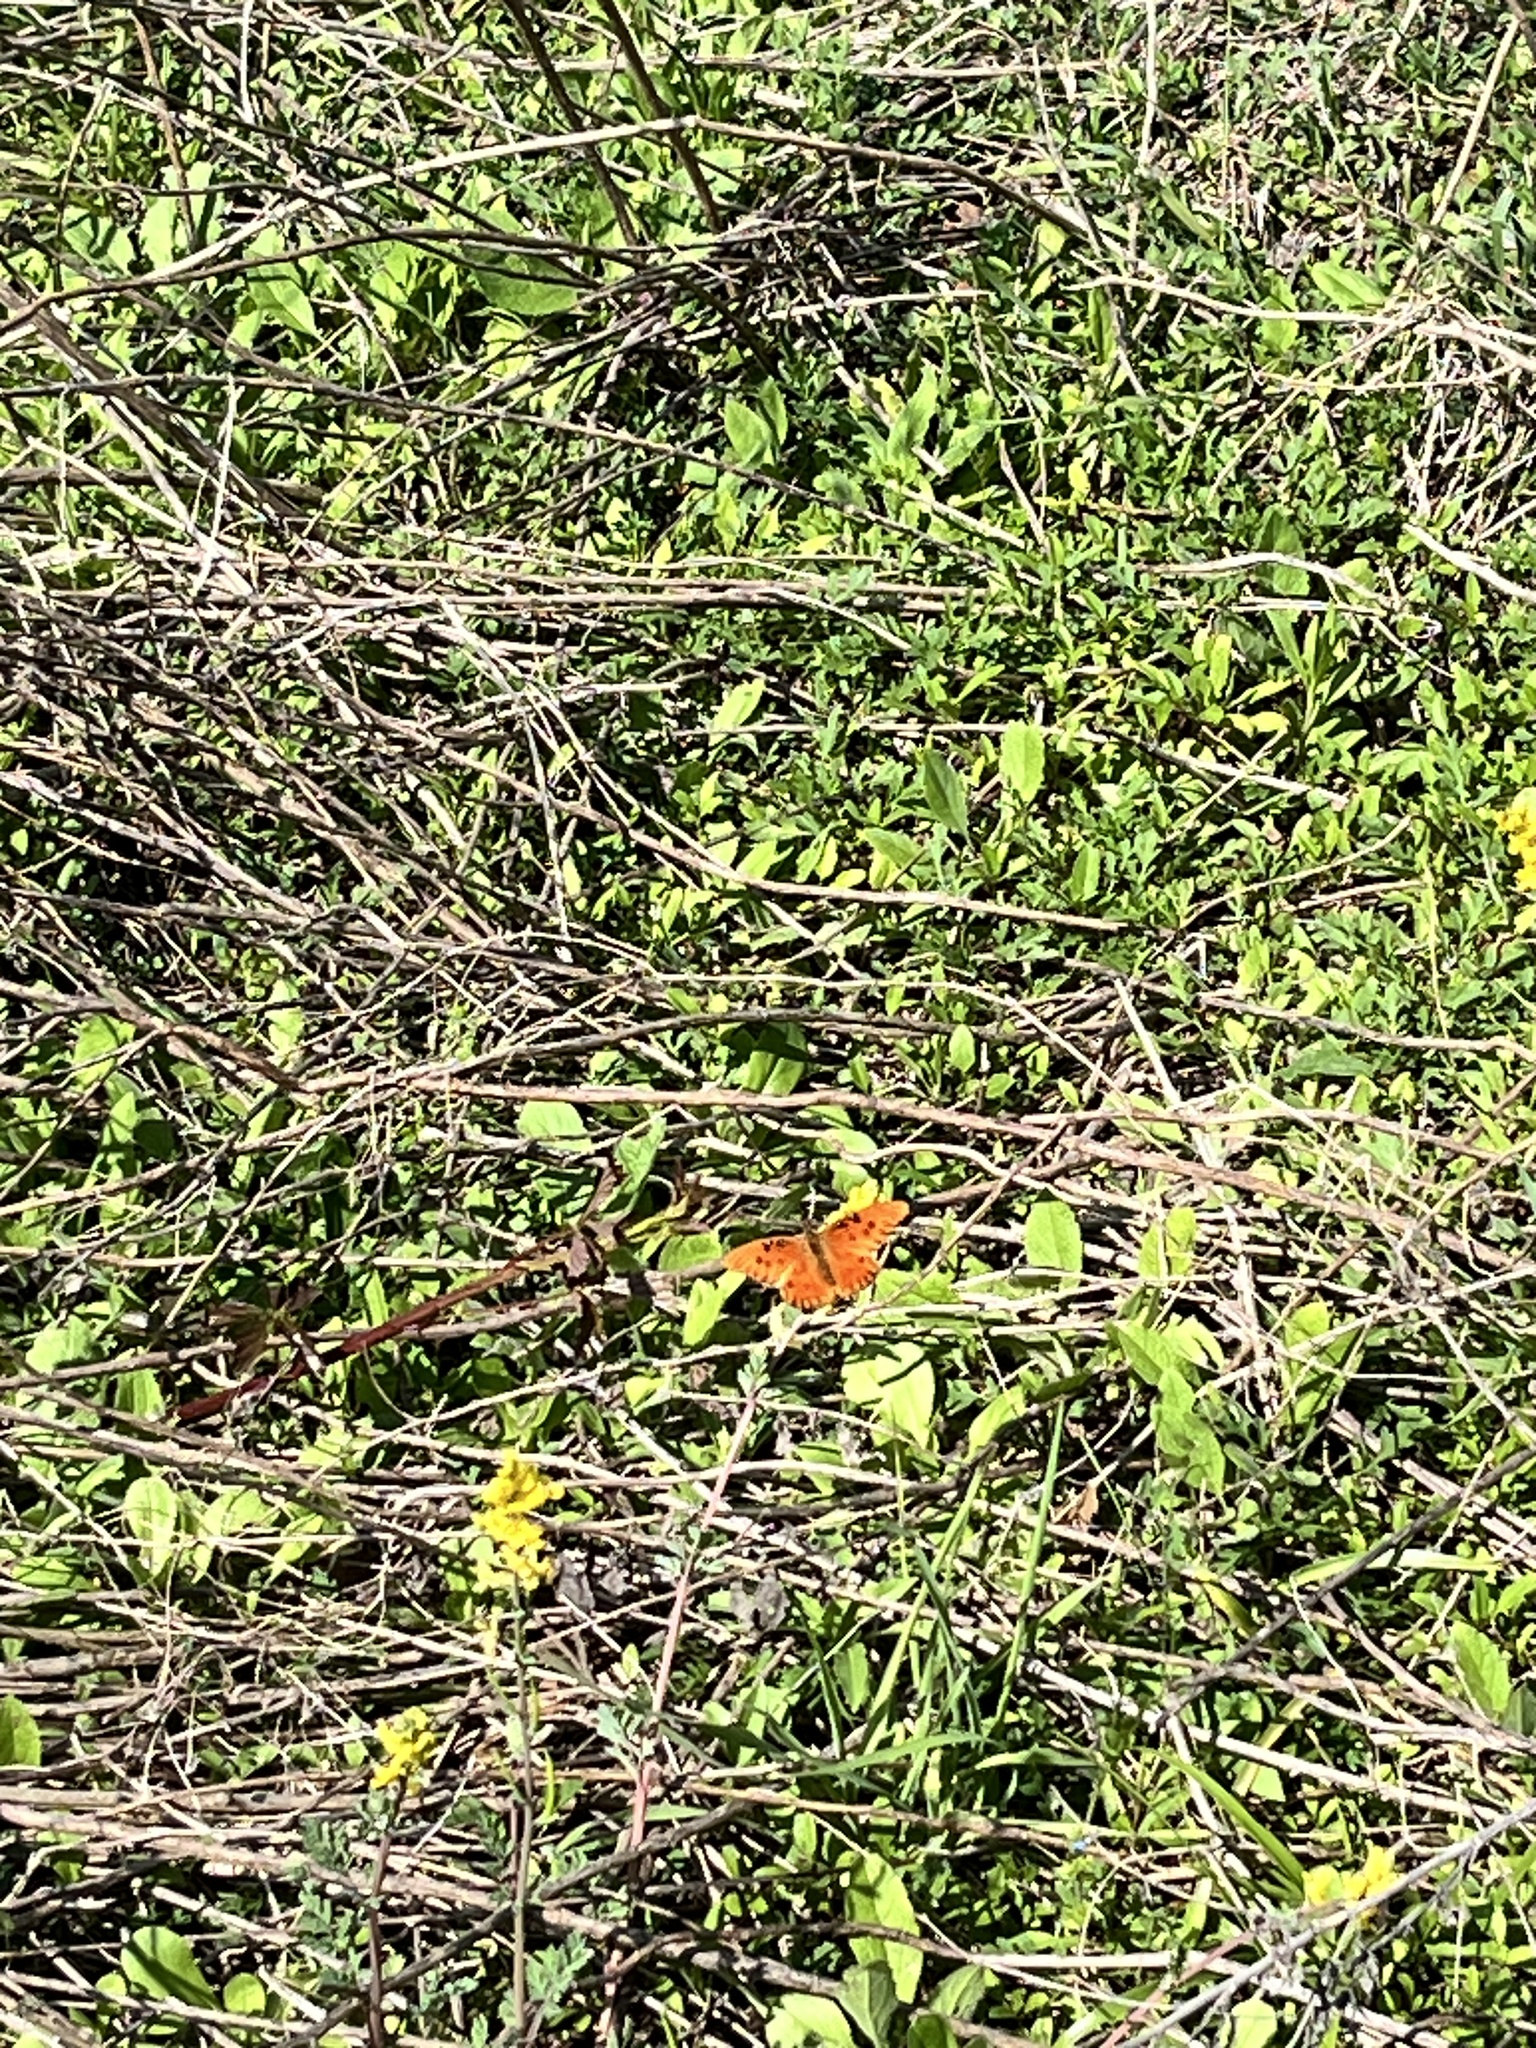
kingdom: Animalia
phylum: Arthropoda
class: Insecta
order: Lepidoptera
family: Nymphalidae
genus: Dione
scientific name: Dione vanillae
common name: Gulf fritillary
